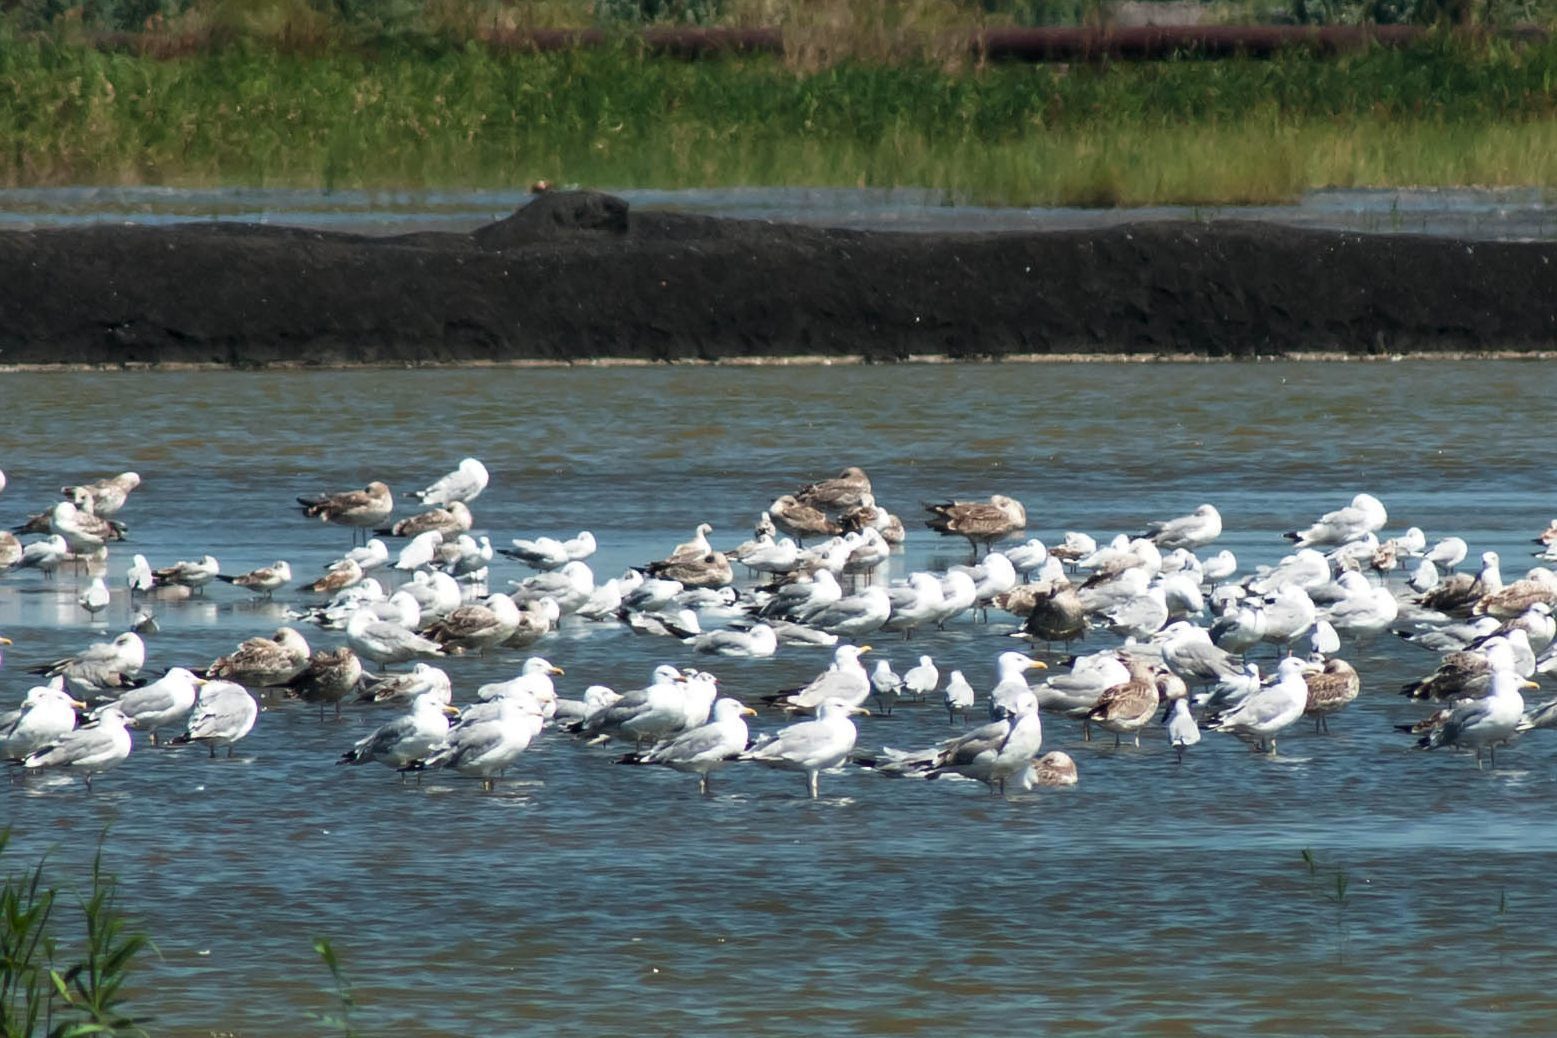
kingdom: Animalia
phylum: Chordata
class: Aves
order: Charadriiformes
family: Laridae
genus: Larus
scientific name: Larus cachinnans
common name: Caspian gull
